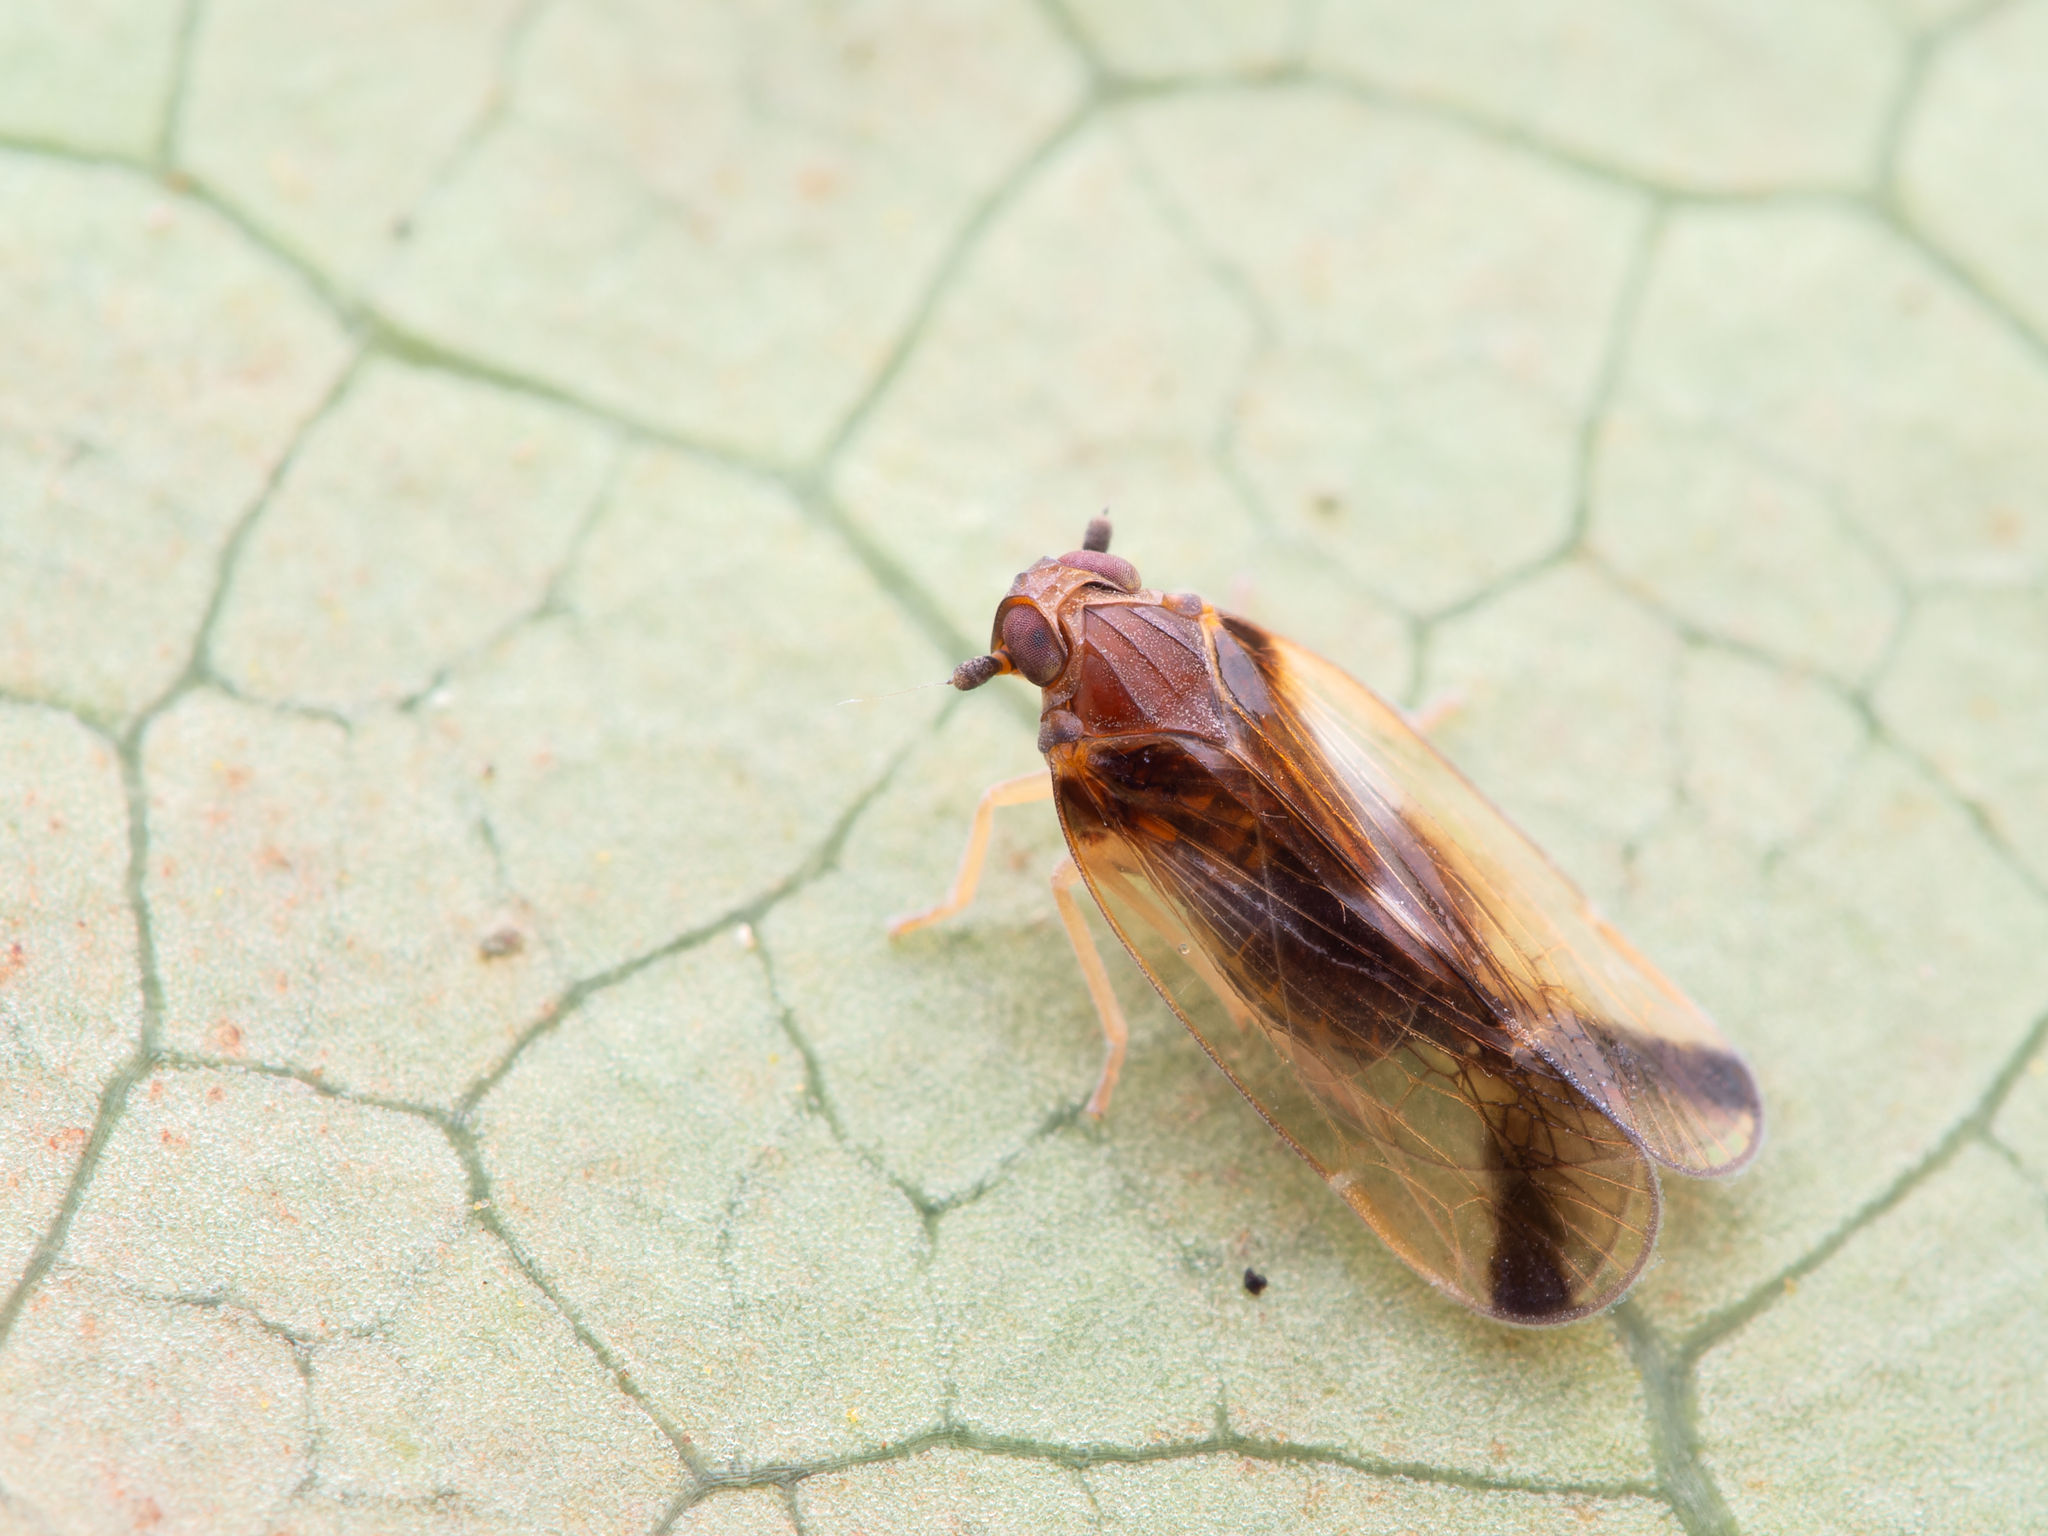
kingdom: Animalia
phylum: Arthropoda
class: Insecta
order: Hemiptera
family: Cixiidae
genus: Tiriteana
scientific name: Tiriteana clarkei
